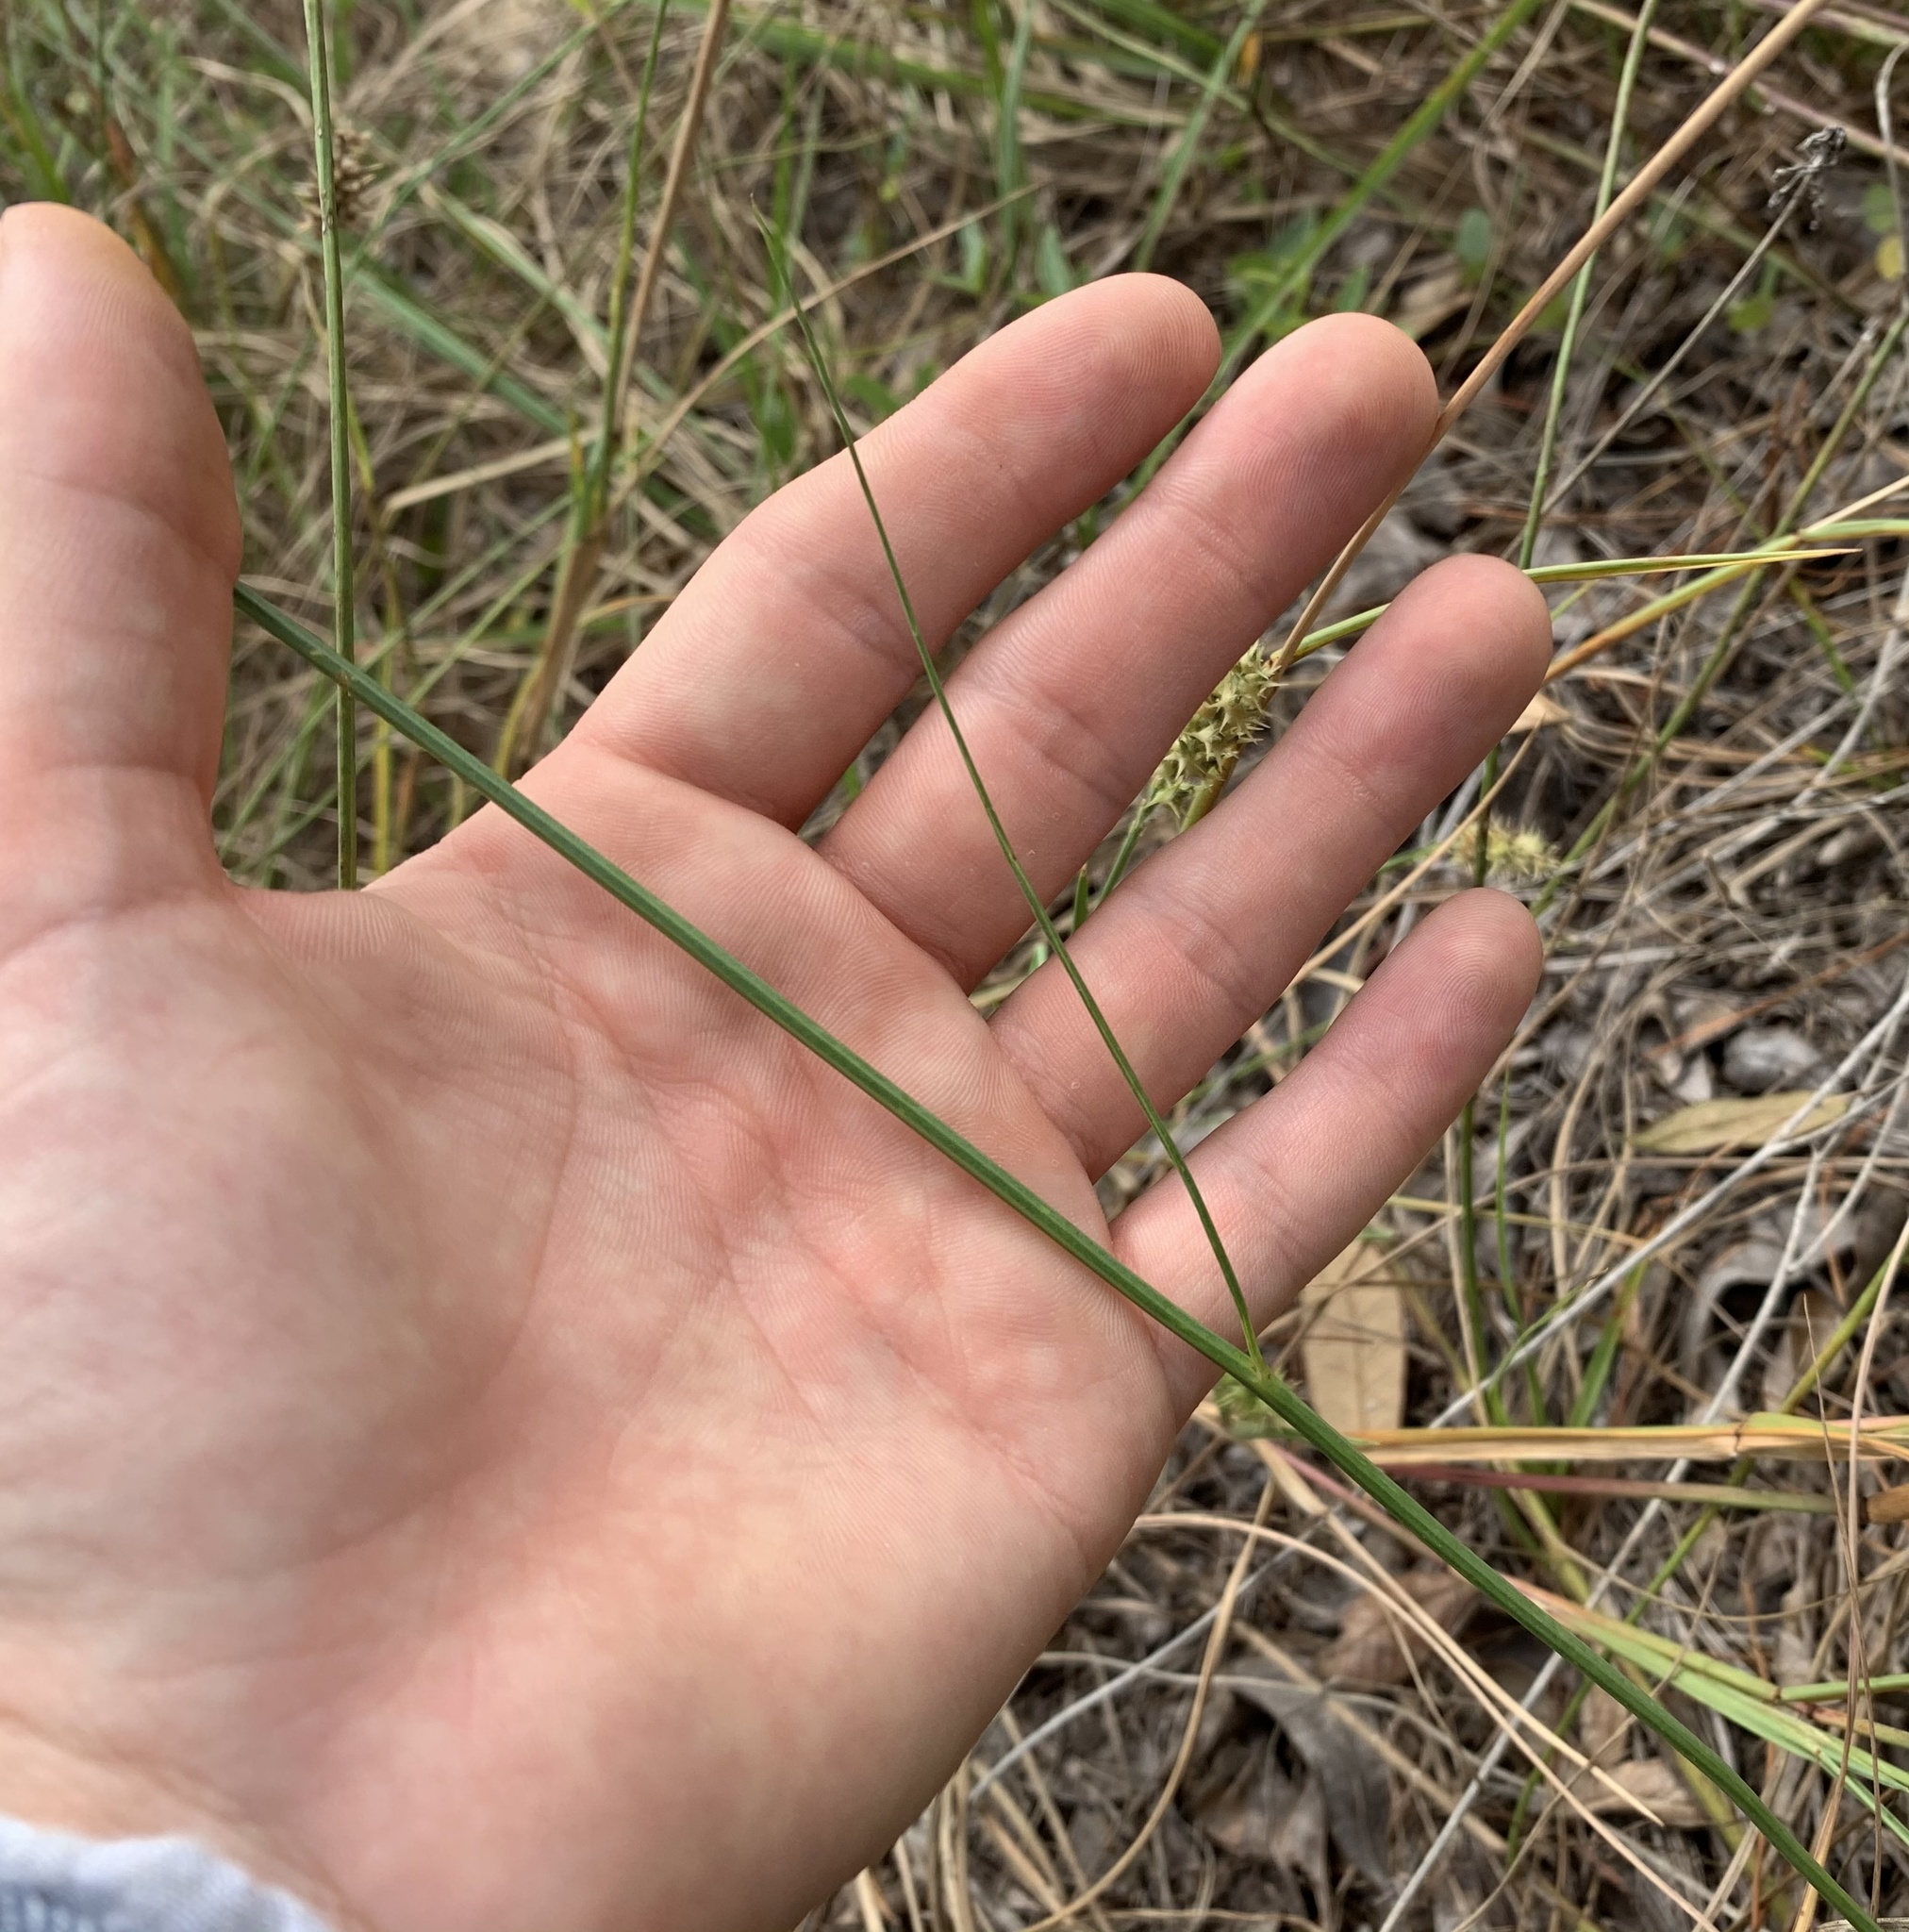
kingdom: Plantae
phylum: Tracheophyta
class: Magnoliopsida
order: Asterales
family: Asteraceae
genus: Lygodesmia
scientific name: Lygodesmia aphylla
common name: Rose-rush
